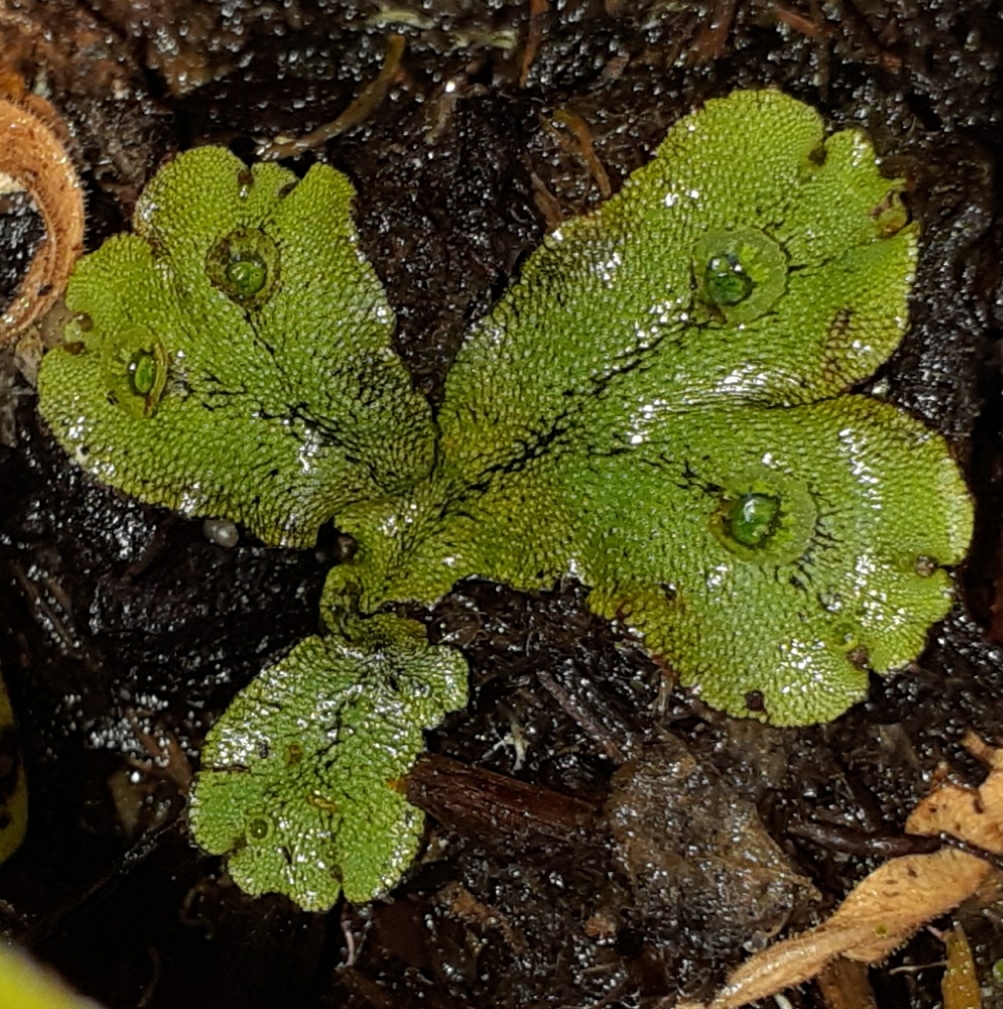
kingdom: Plantae
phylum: Marchantiophyta
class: Marchantiopsida
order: Marchantiales
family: Marchantiaceae
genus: Marchantia
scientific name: Marchantia polymorpha
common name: Common liverwort
